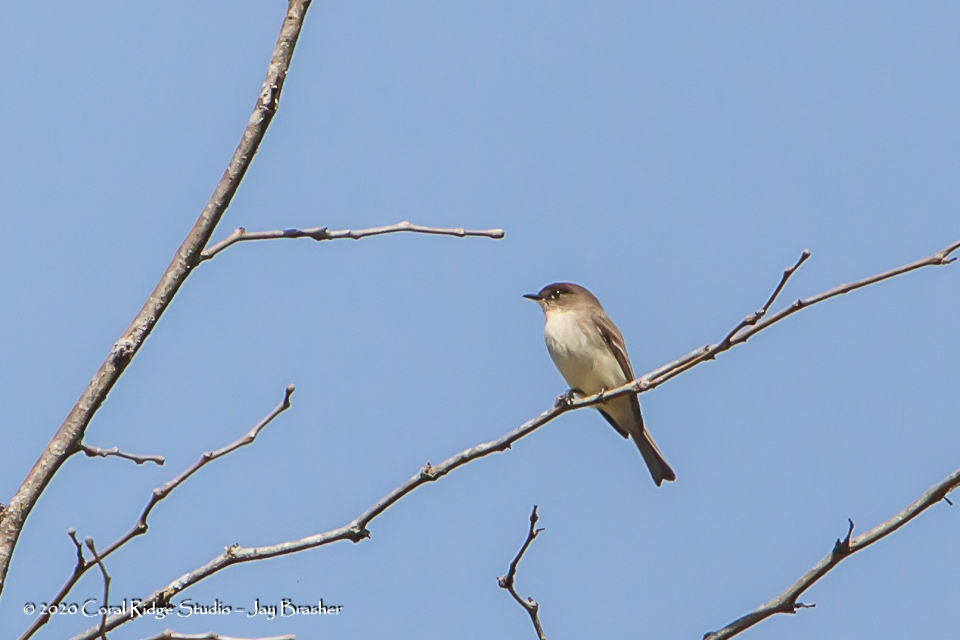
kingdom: Animalia
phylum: Chordata
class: Aves
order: Passeriformes
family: Tyrannidae
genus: Sayornis
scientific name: Sayornis phoebe
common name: Eastern phoebe
